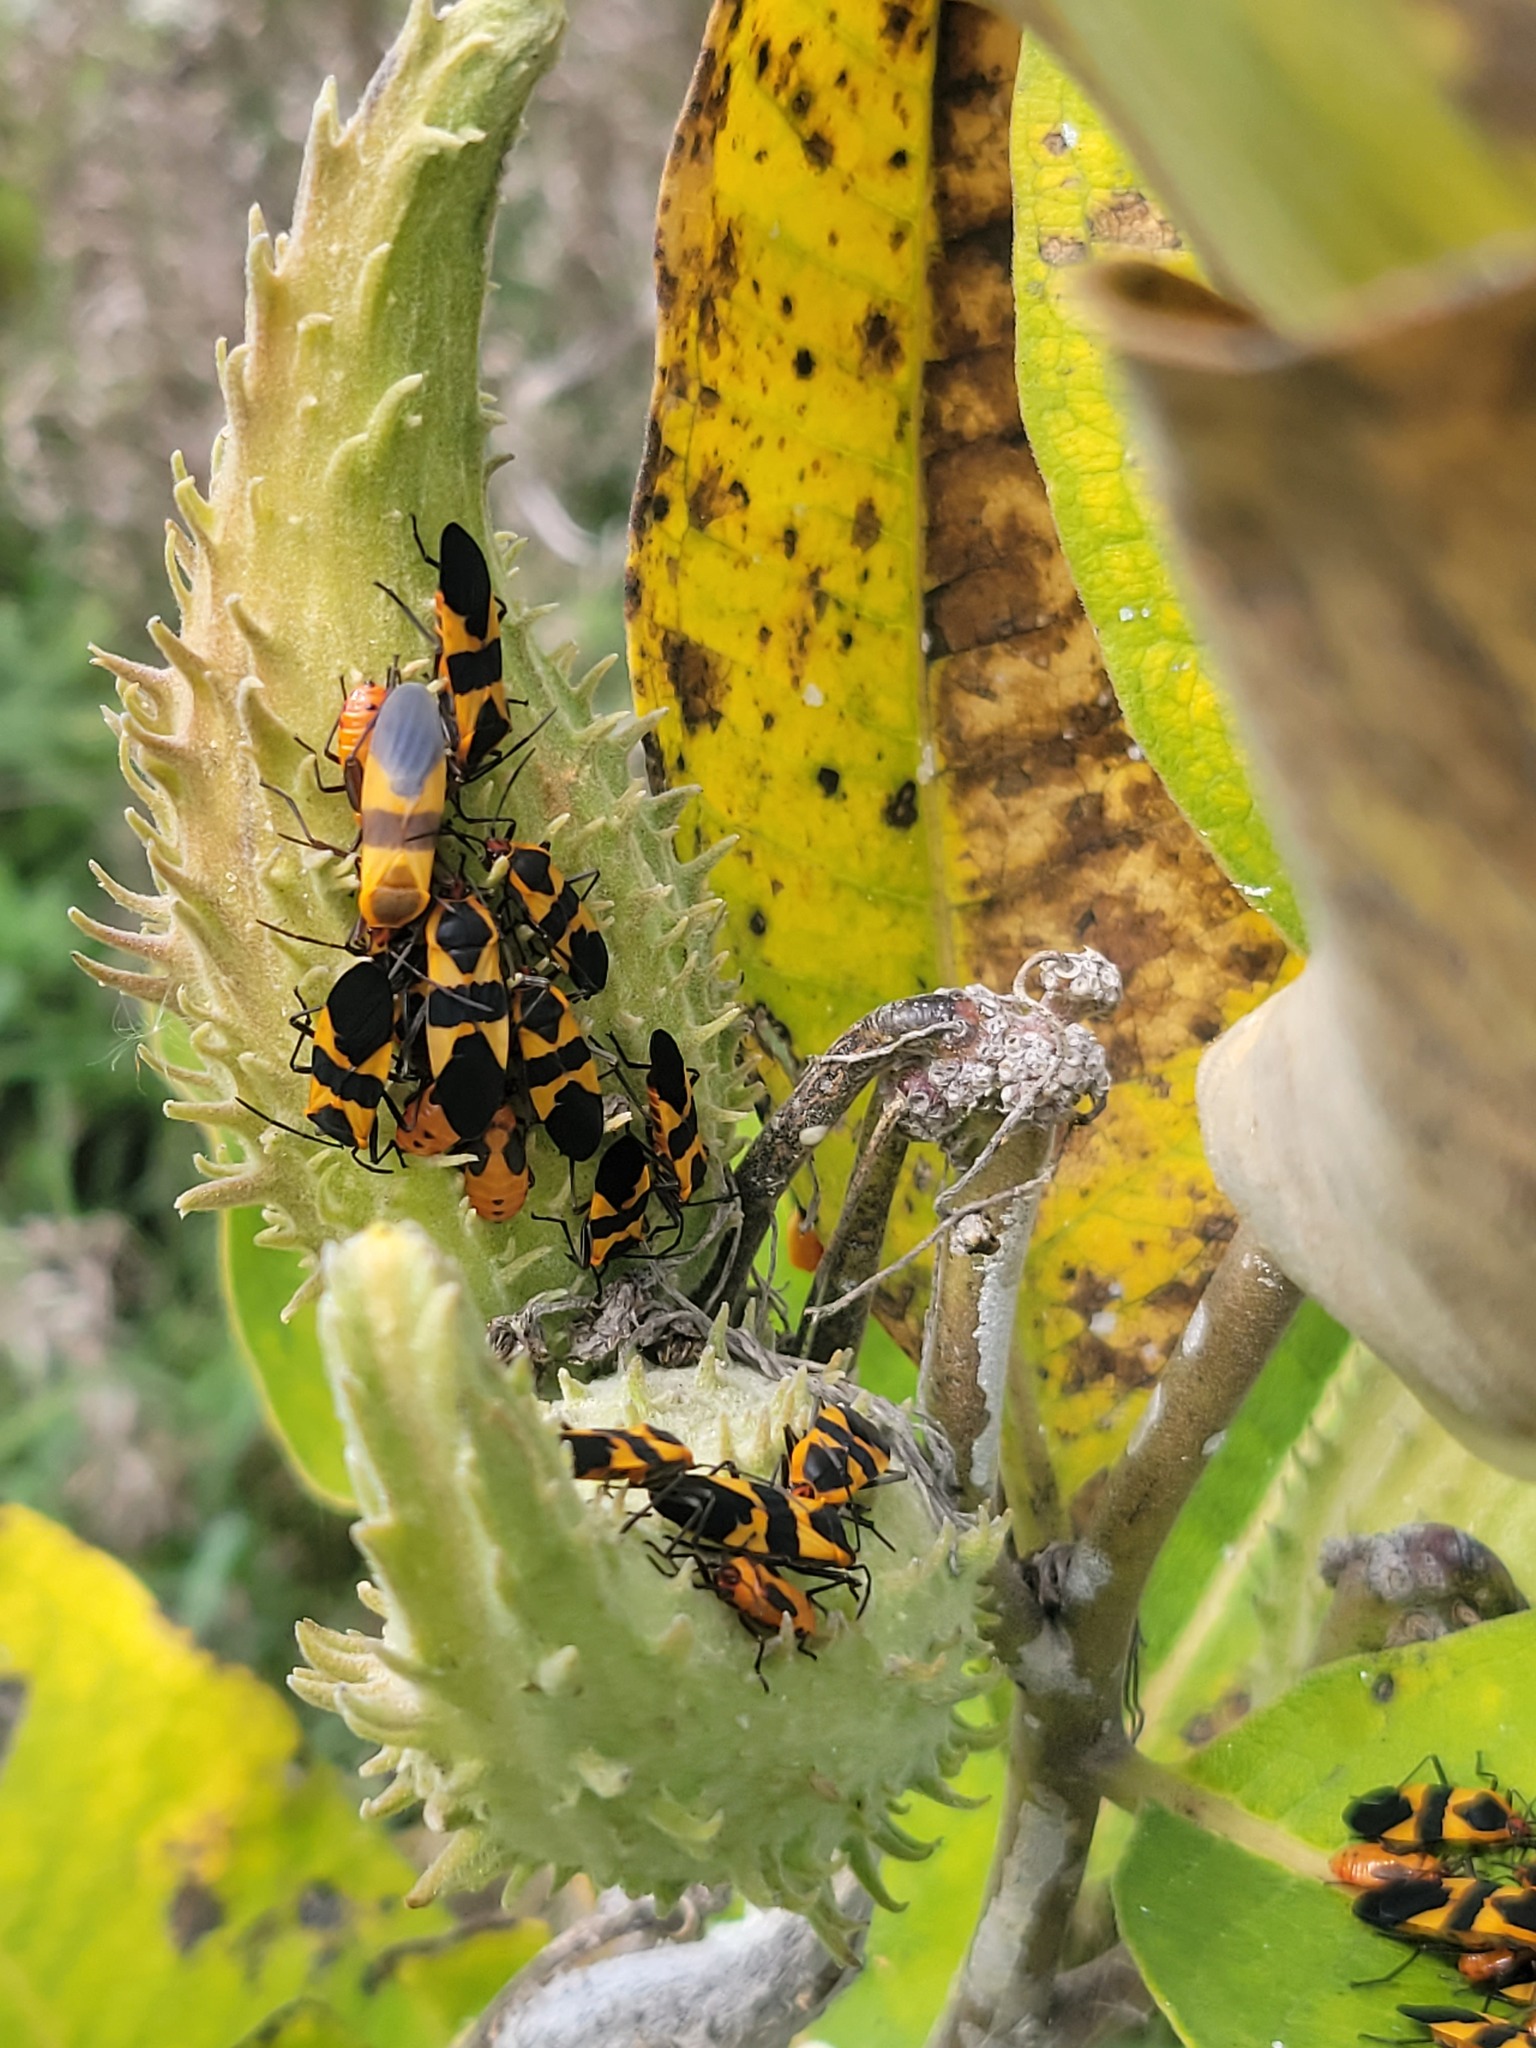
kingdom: Animalia
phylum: Arthropoda
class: Insecta
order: Hemiptera
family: Lygaeidae
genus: Oncopeltus
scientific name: Oncopeltus fasciatus
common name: Large milkweed bug
